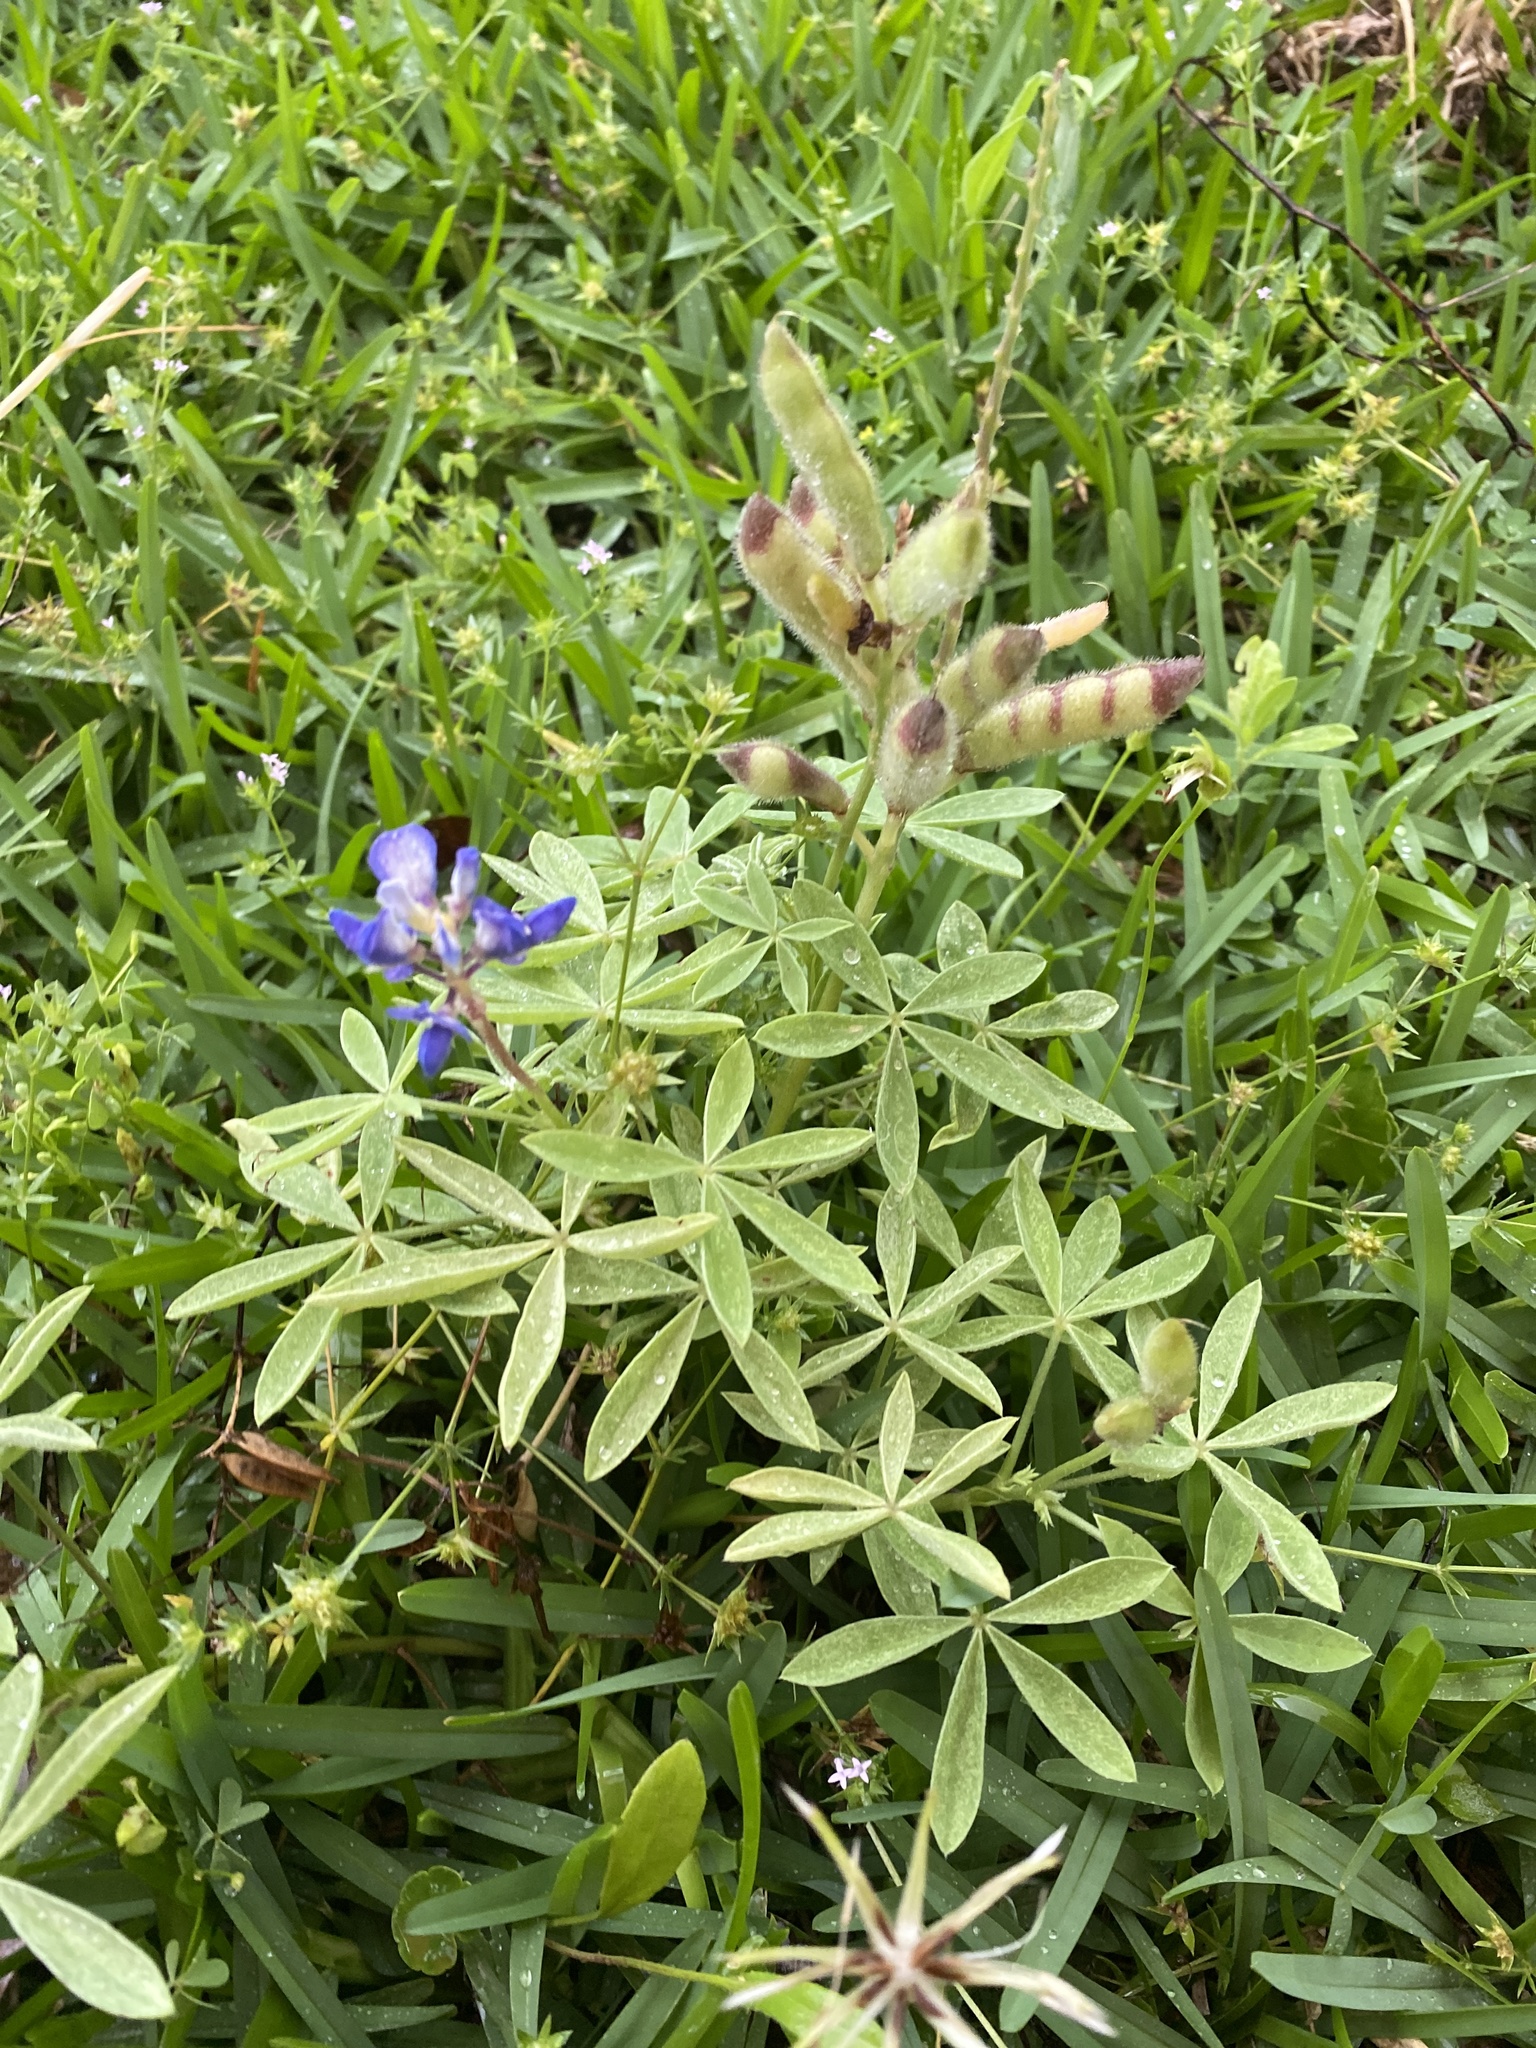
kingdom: Plantae
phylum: Tracheophyta
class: Magnoliopsida
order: Fabales
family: Fabaceae
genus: Lupinus
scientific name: Lupinus texensis
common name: Texas bluebonnet
